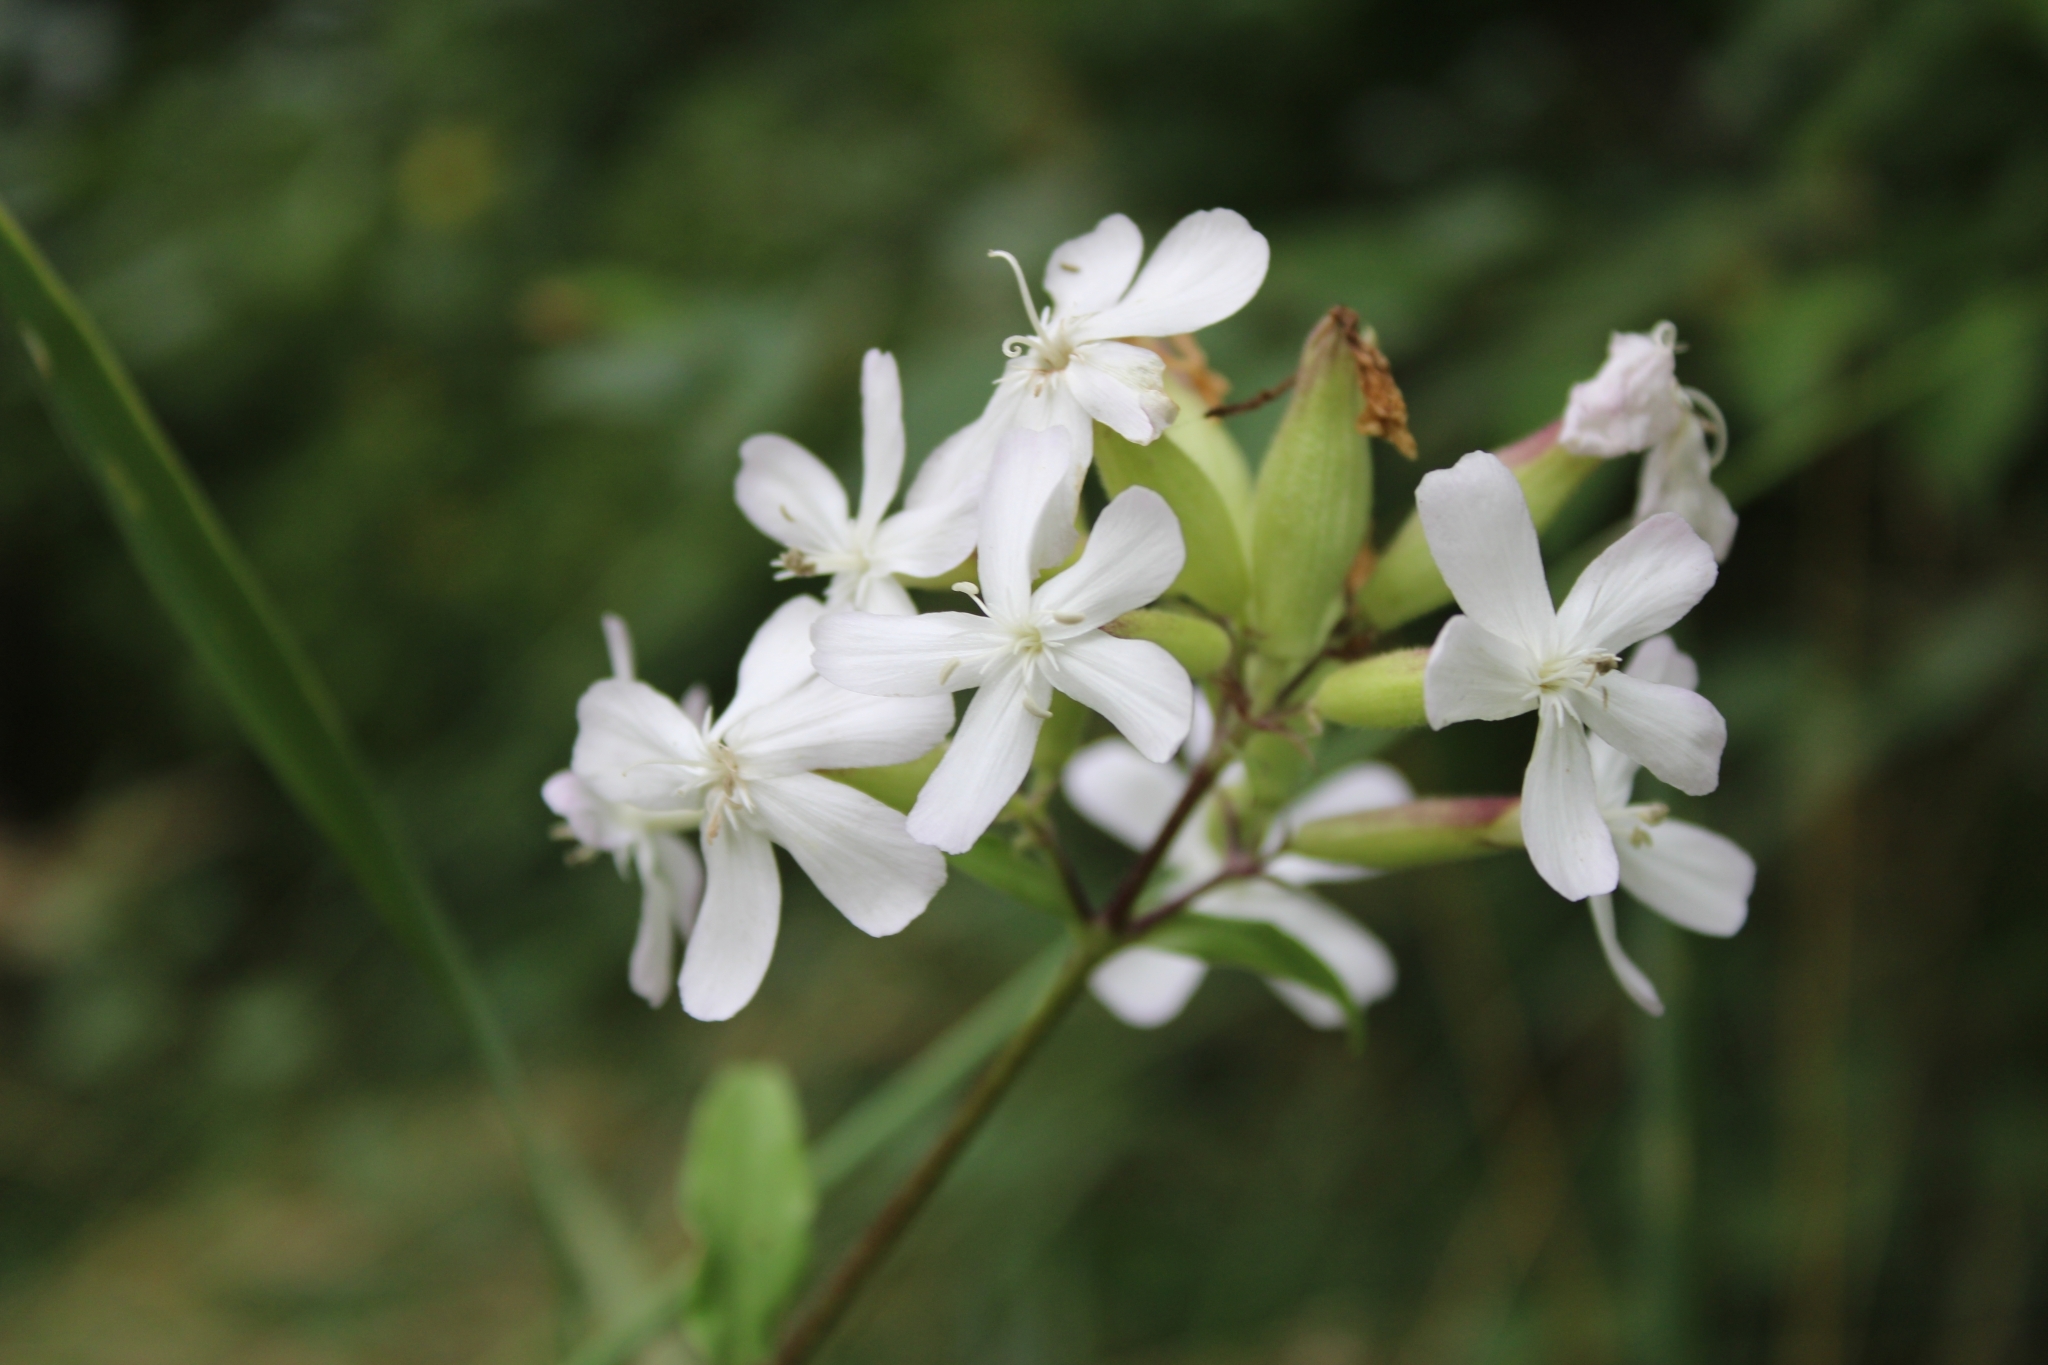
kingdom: Plantae
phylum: Tracheophyta
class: Magnoliopsida
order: Caryophyllales
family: Caryophyllaceae
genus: Saponaria
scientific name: Saponaria officinalis
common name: Soapwort
